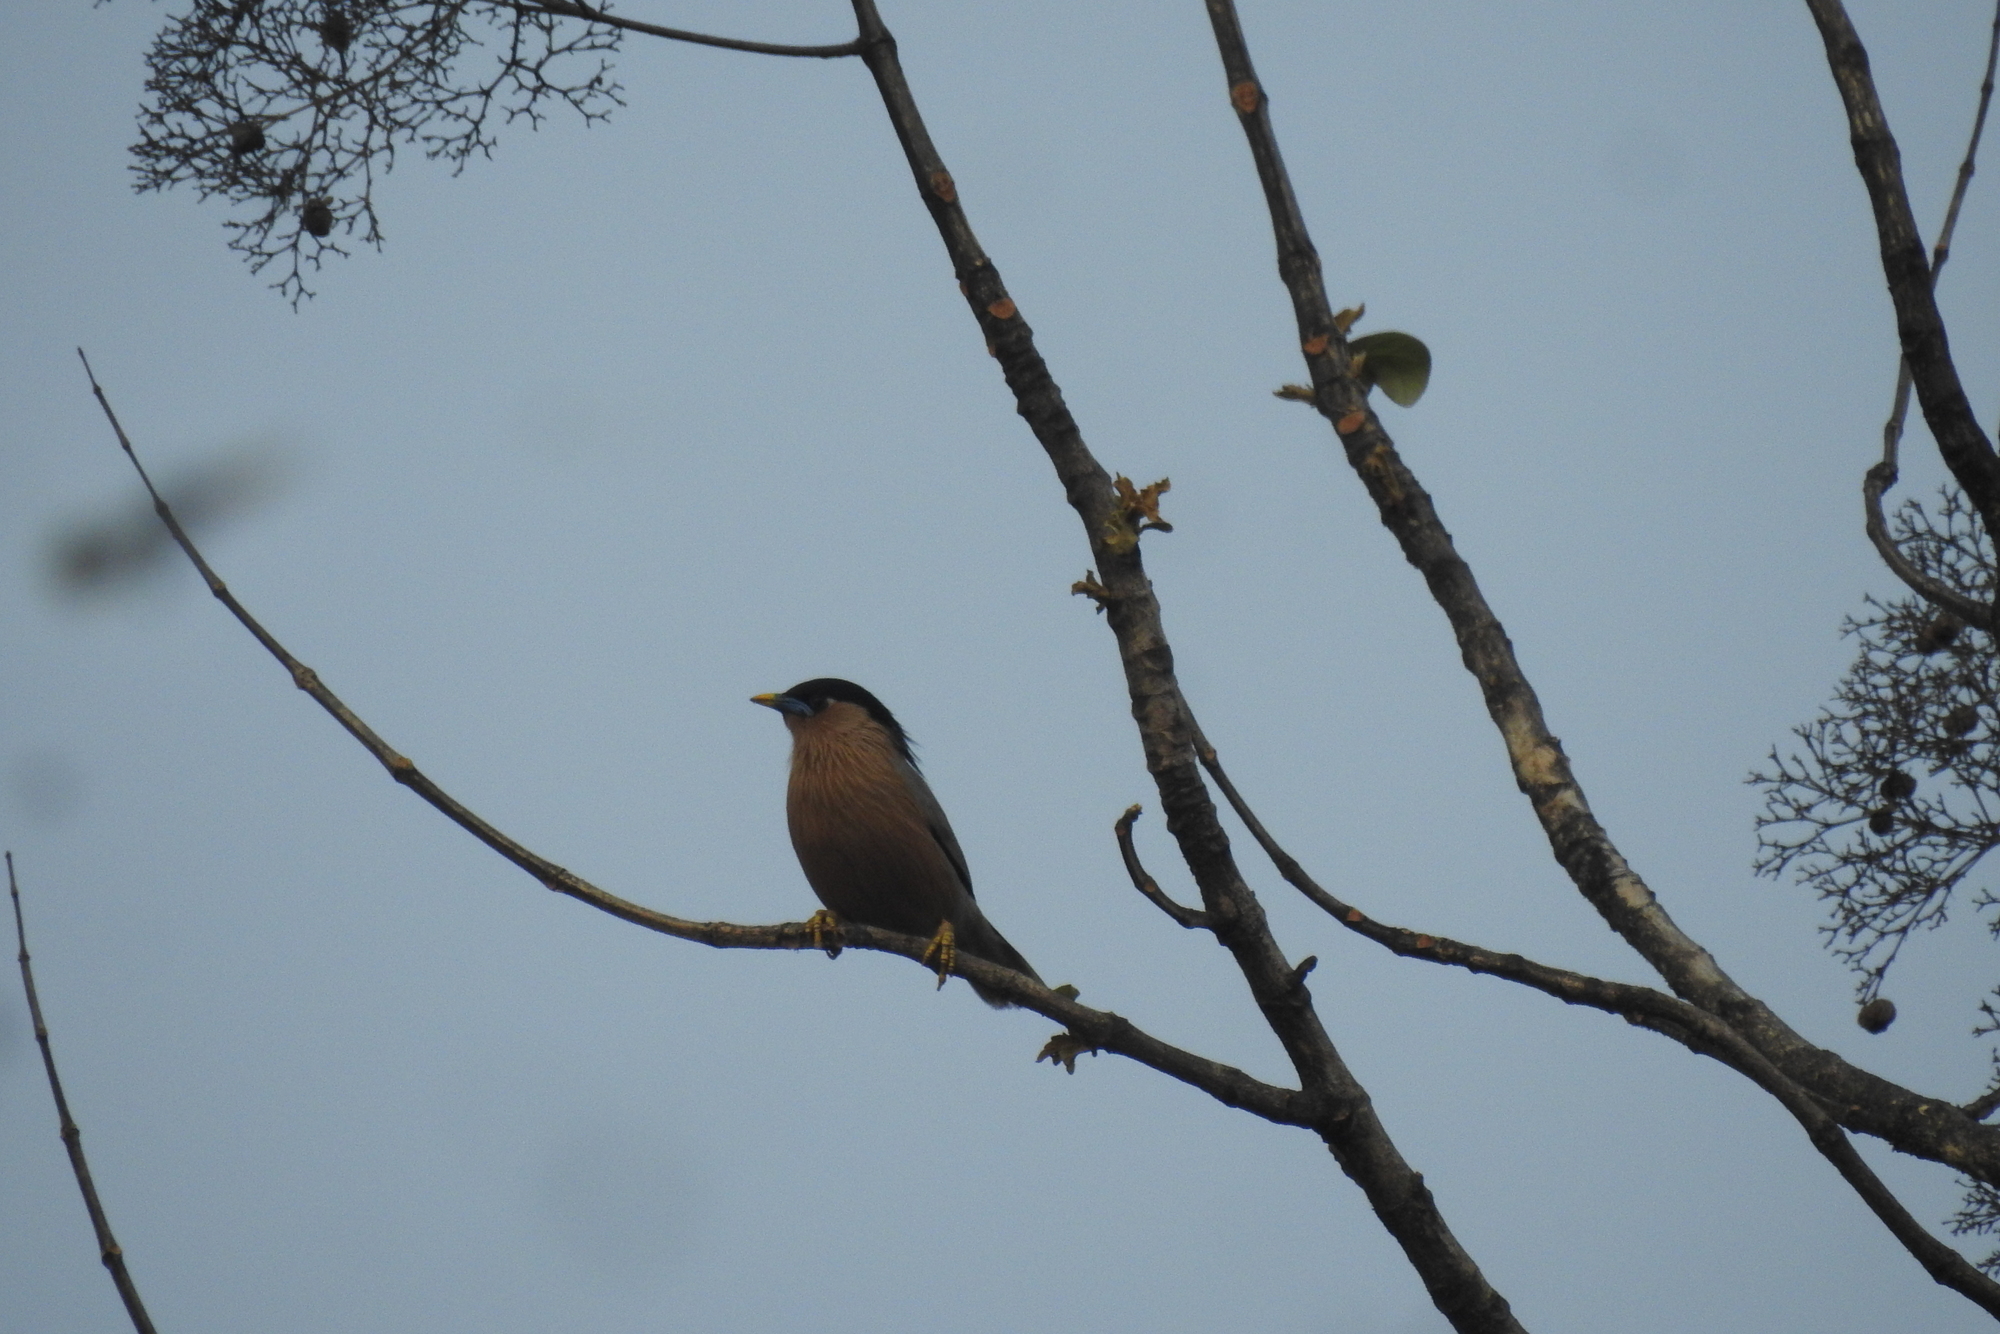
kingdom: Animalia
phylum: Chordata
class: Aves
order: Passeriformes
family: Sturnidae
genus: Sturnia
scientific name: Sturnia pagodarum
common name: Brahminy starling
